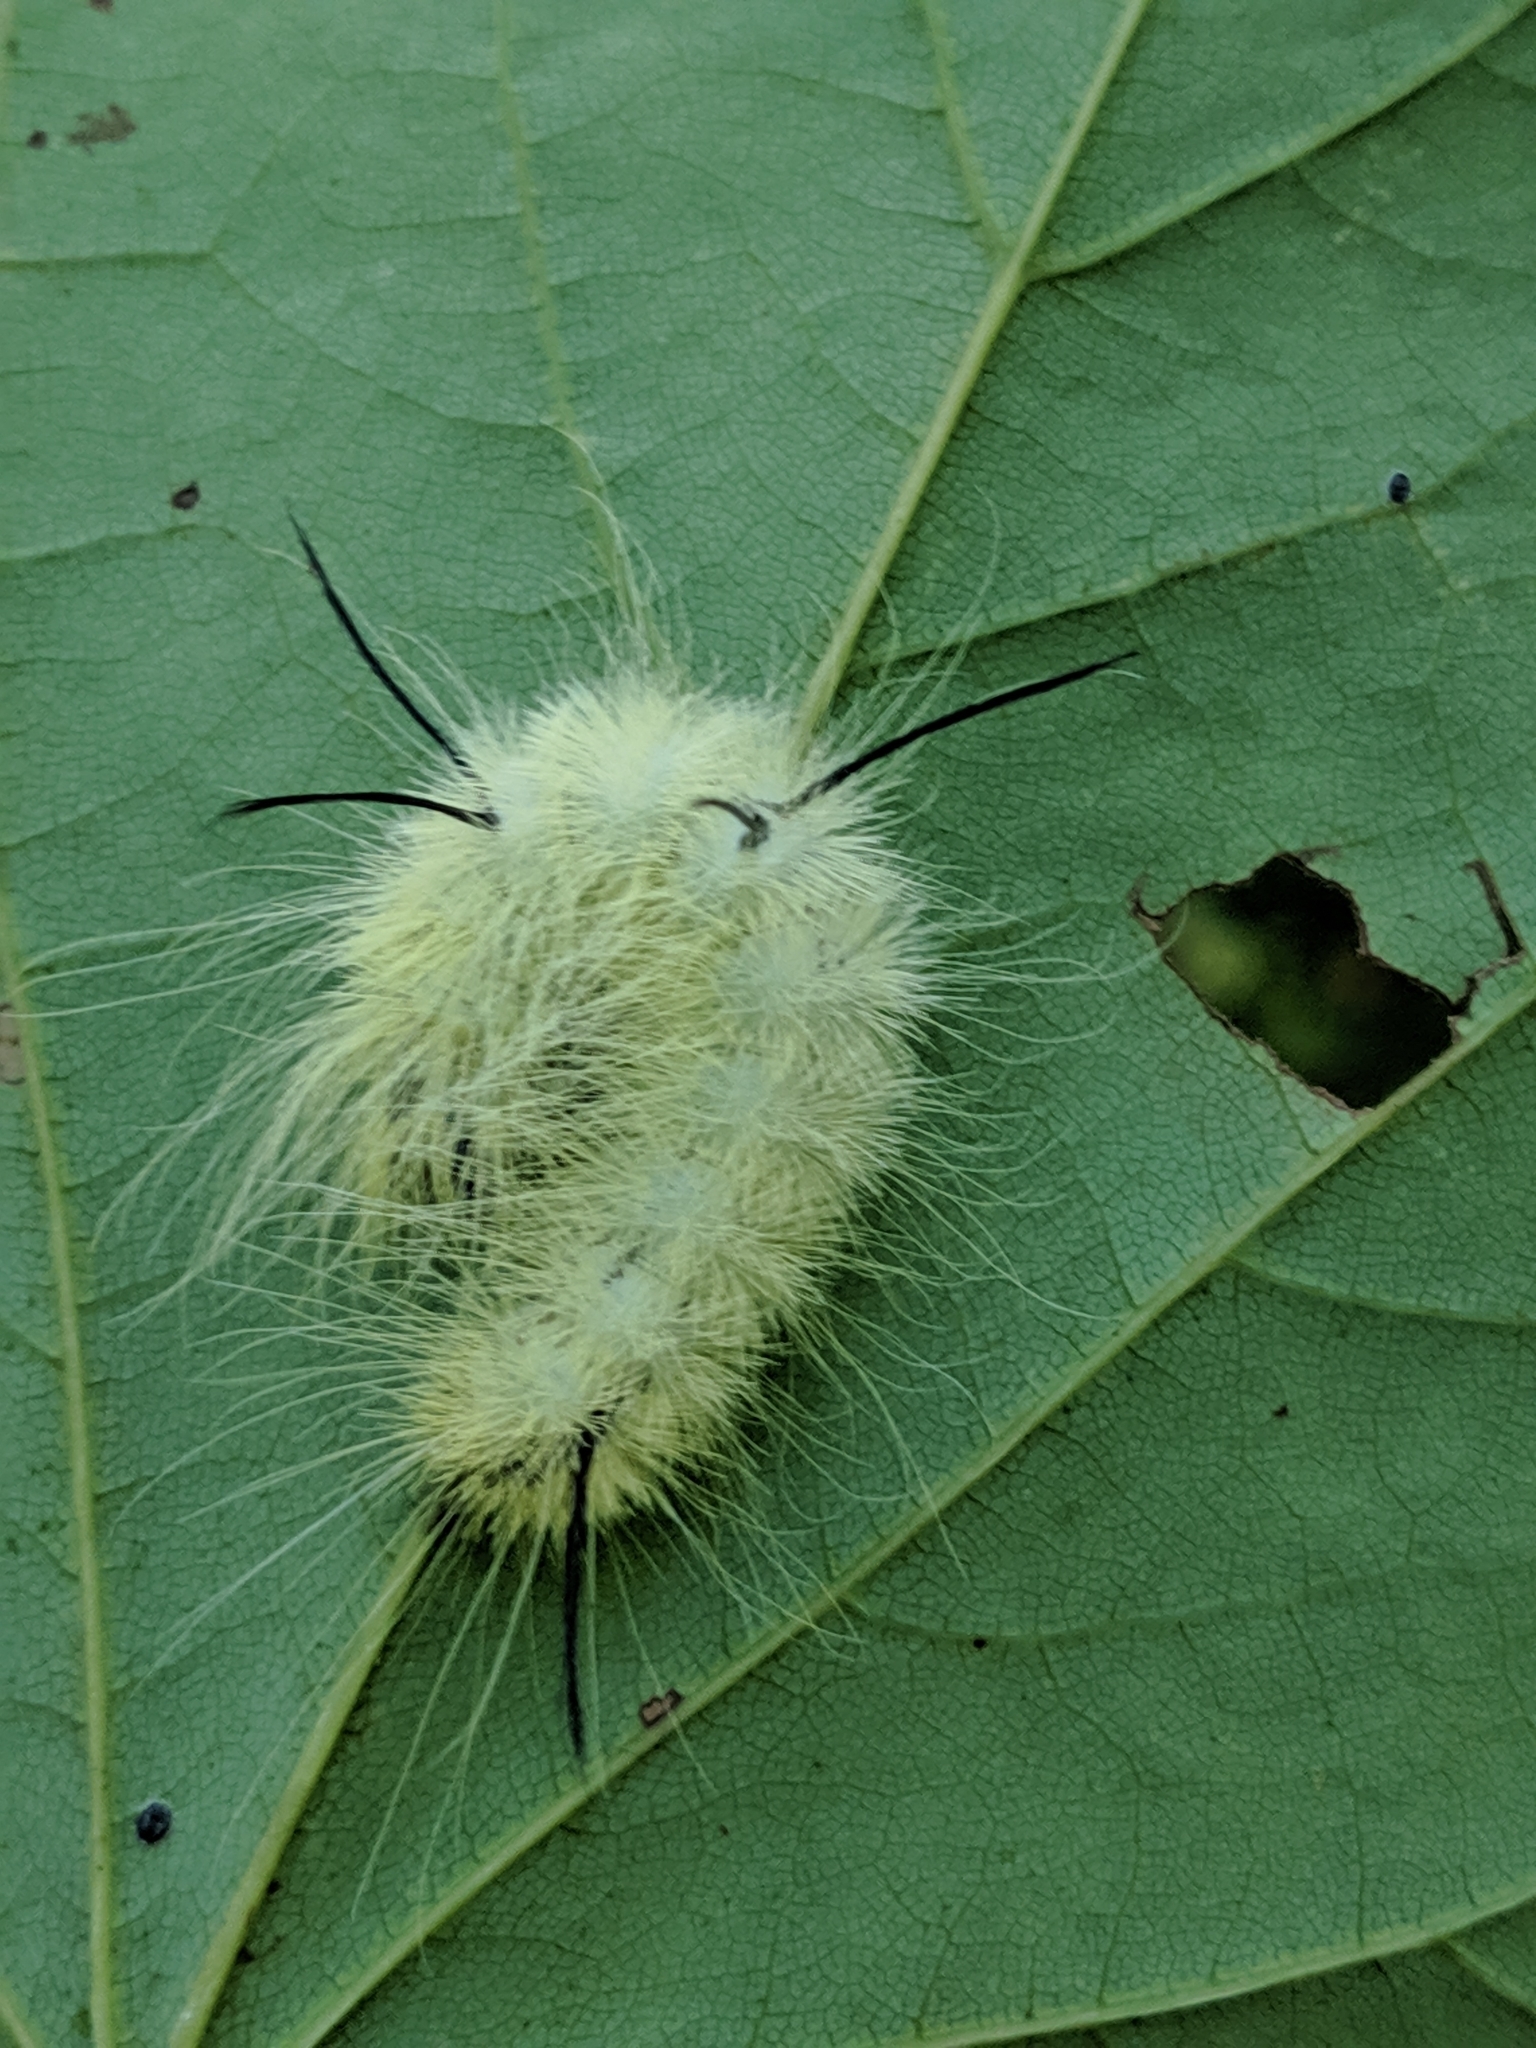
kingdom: Animalia
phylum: Arthropoda
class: Insecta
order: Lepidoptera
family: Noctuidae
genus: Acronicta
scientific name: Acronicta americana
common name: American dagger
